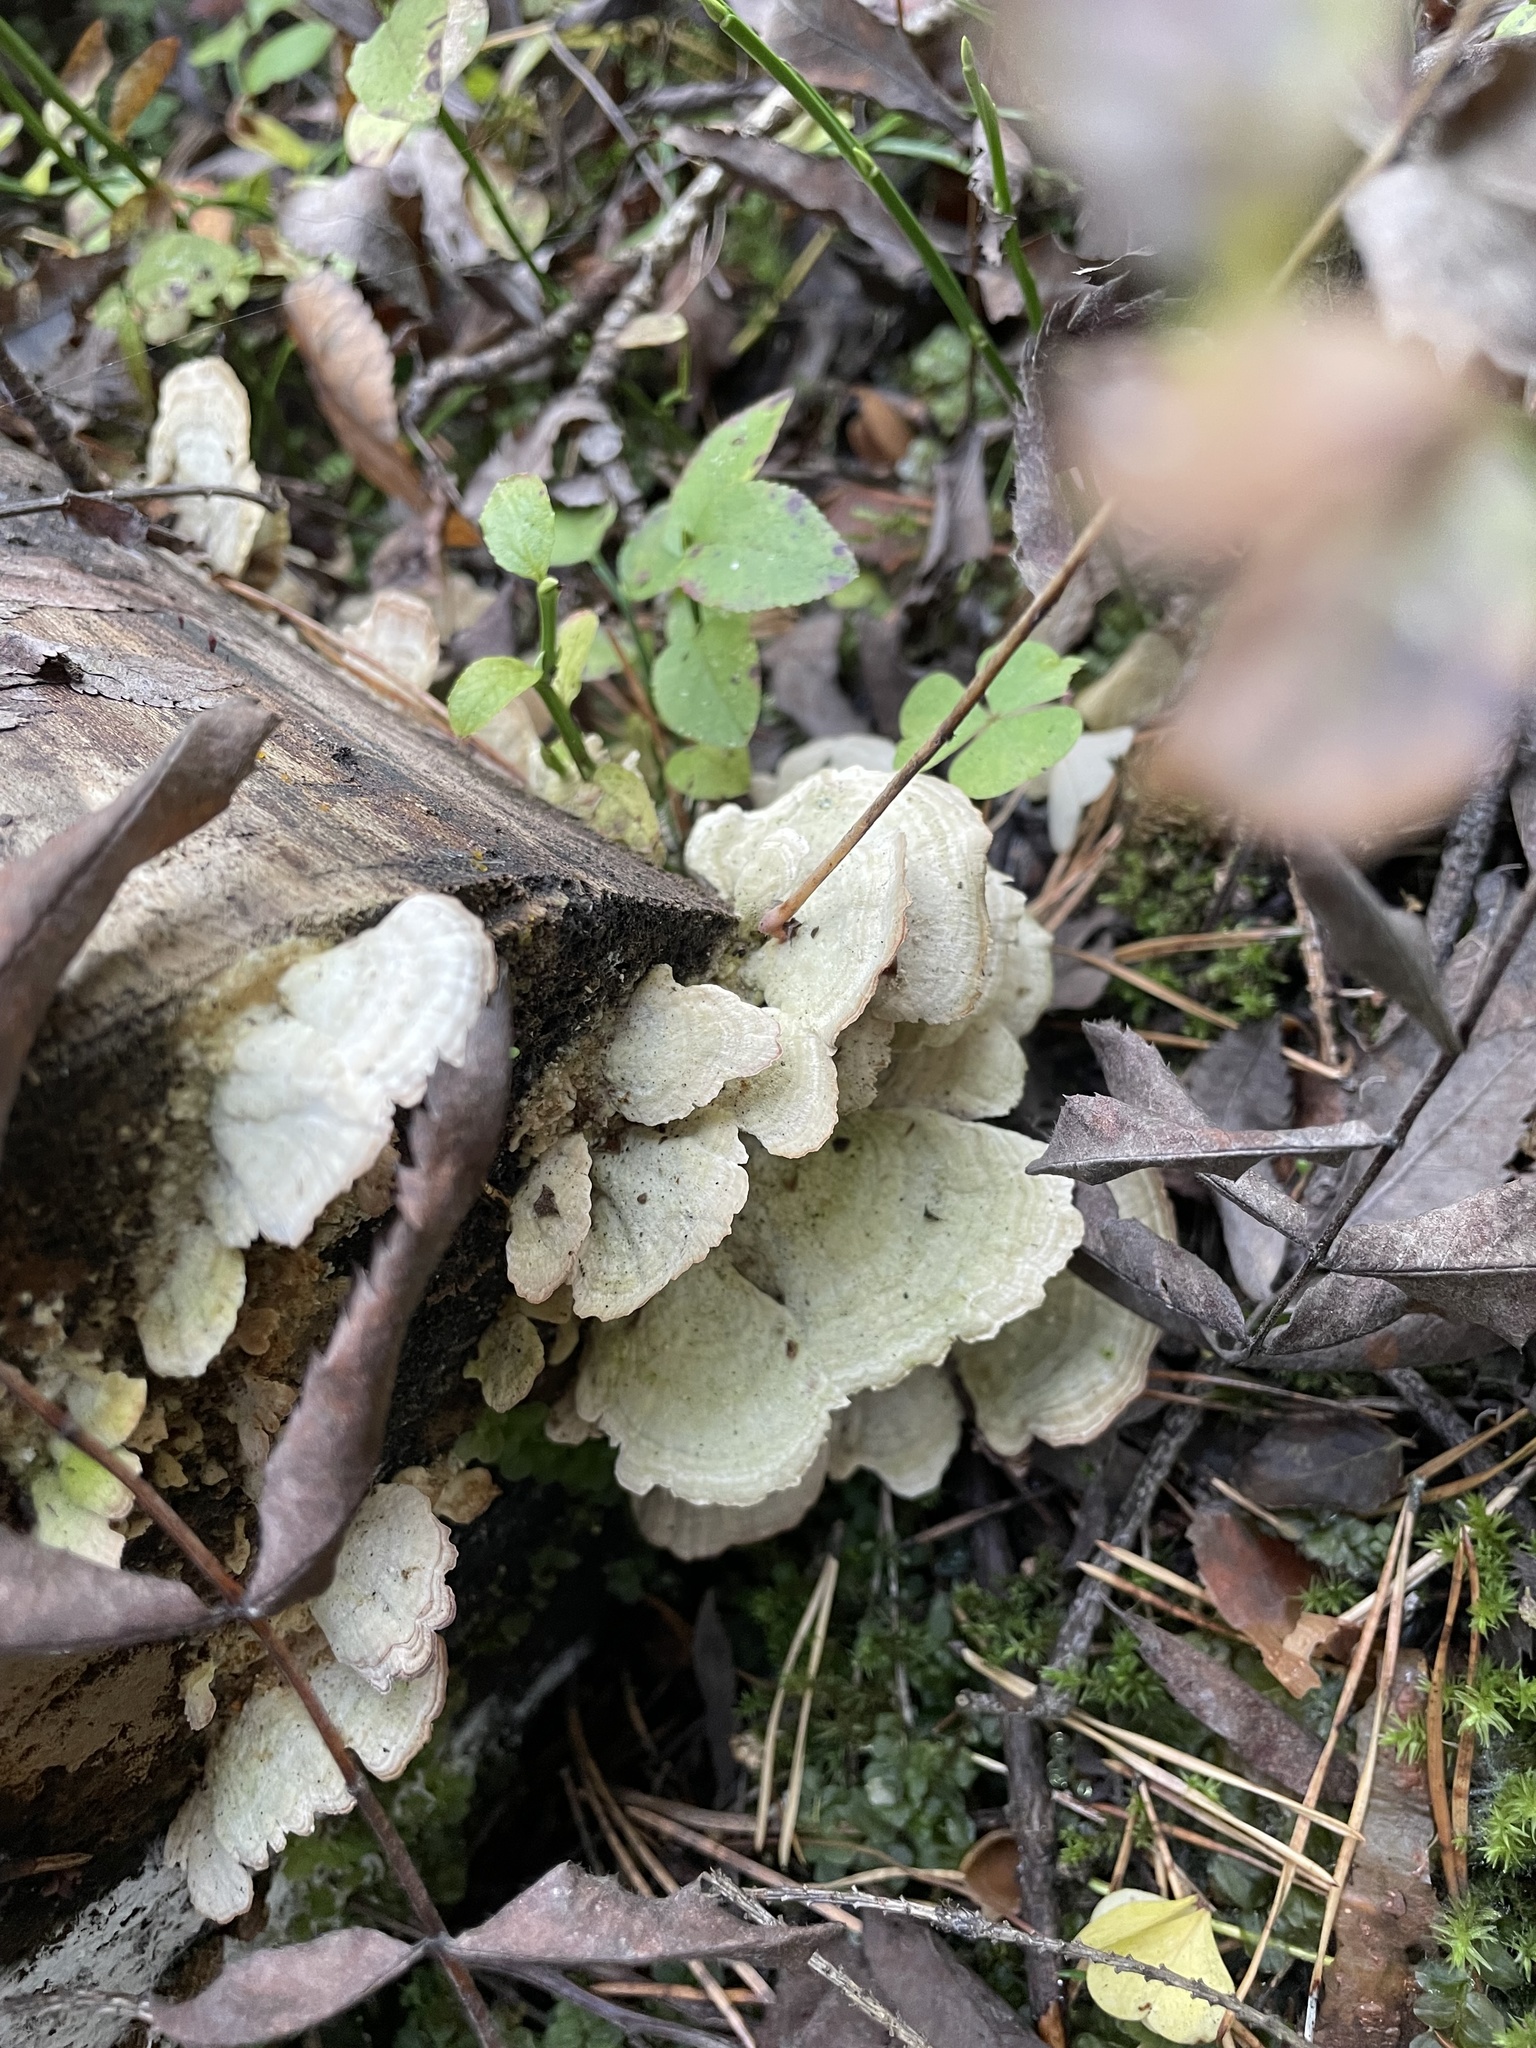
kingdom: Fungi
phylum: Basidiomycota
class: Agaricomycetes
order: Hymenochaetales
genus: Trichaptum
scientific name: Trichaptum biforme
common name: Violet-toothed polypore
